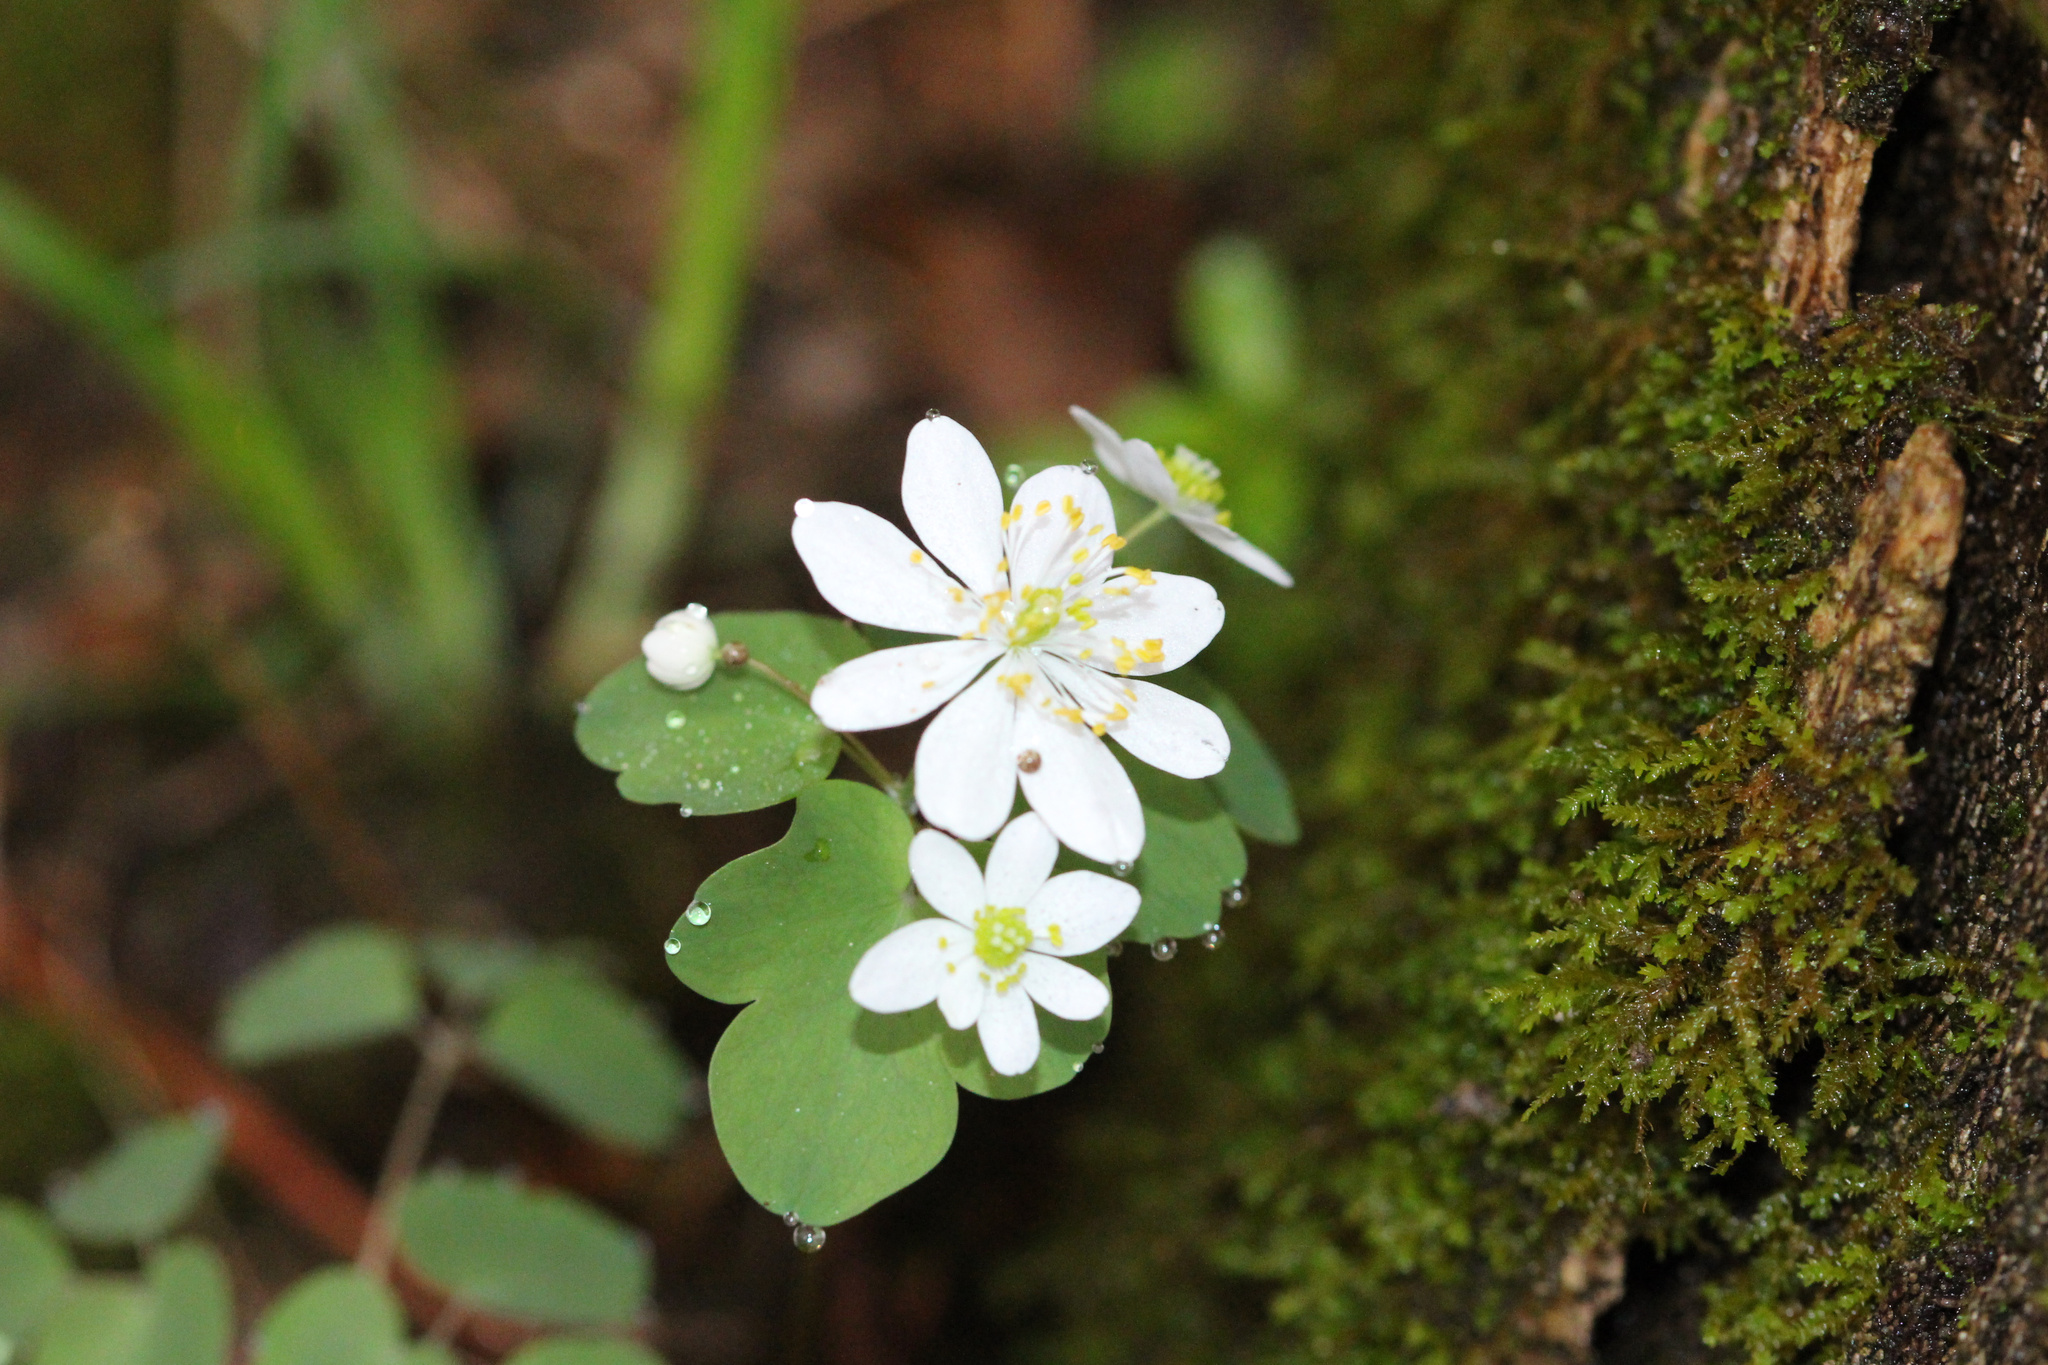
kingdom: Plantae
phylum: Tracheophyta
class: Magnoliopsida
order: Ranunculales
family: Ranunculaceae
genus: Thalictrum
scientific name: Thalictrum thalictroides
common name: Rue-anemone
